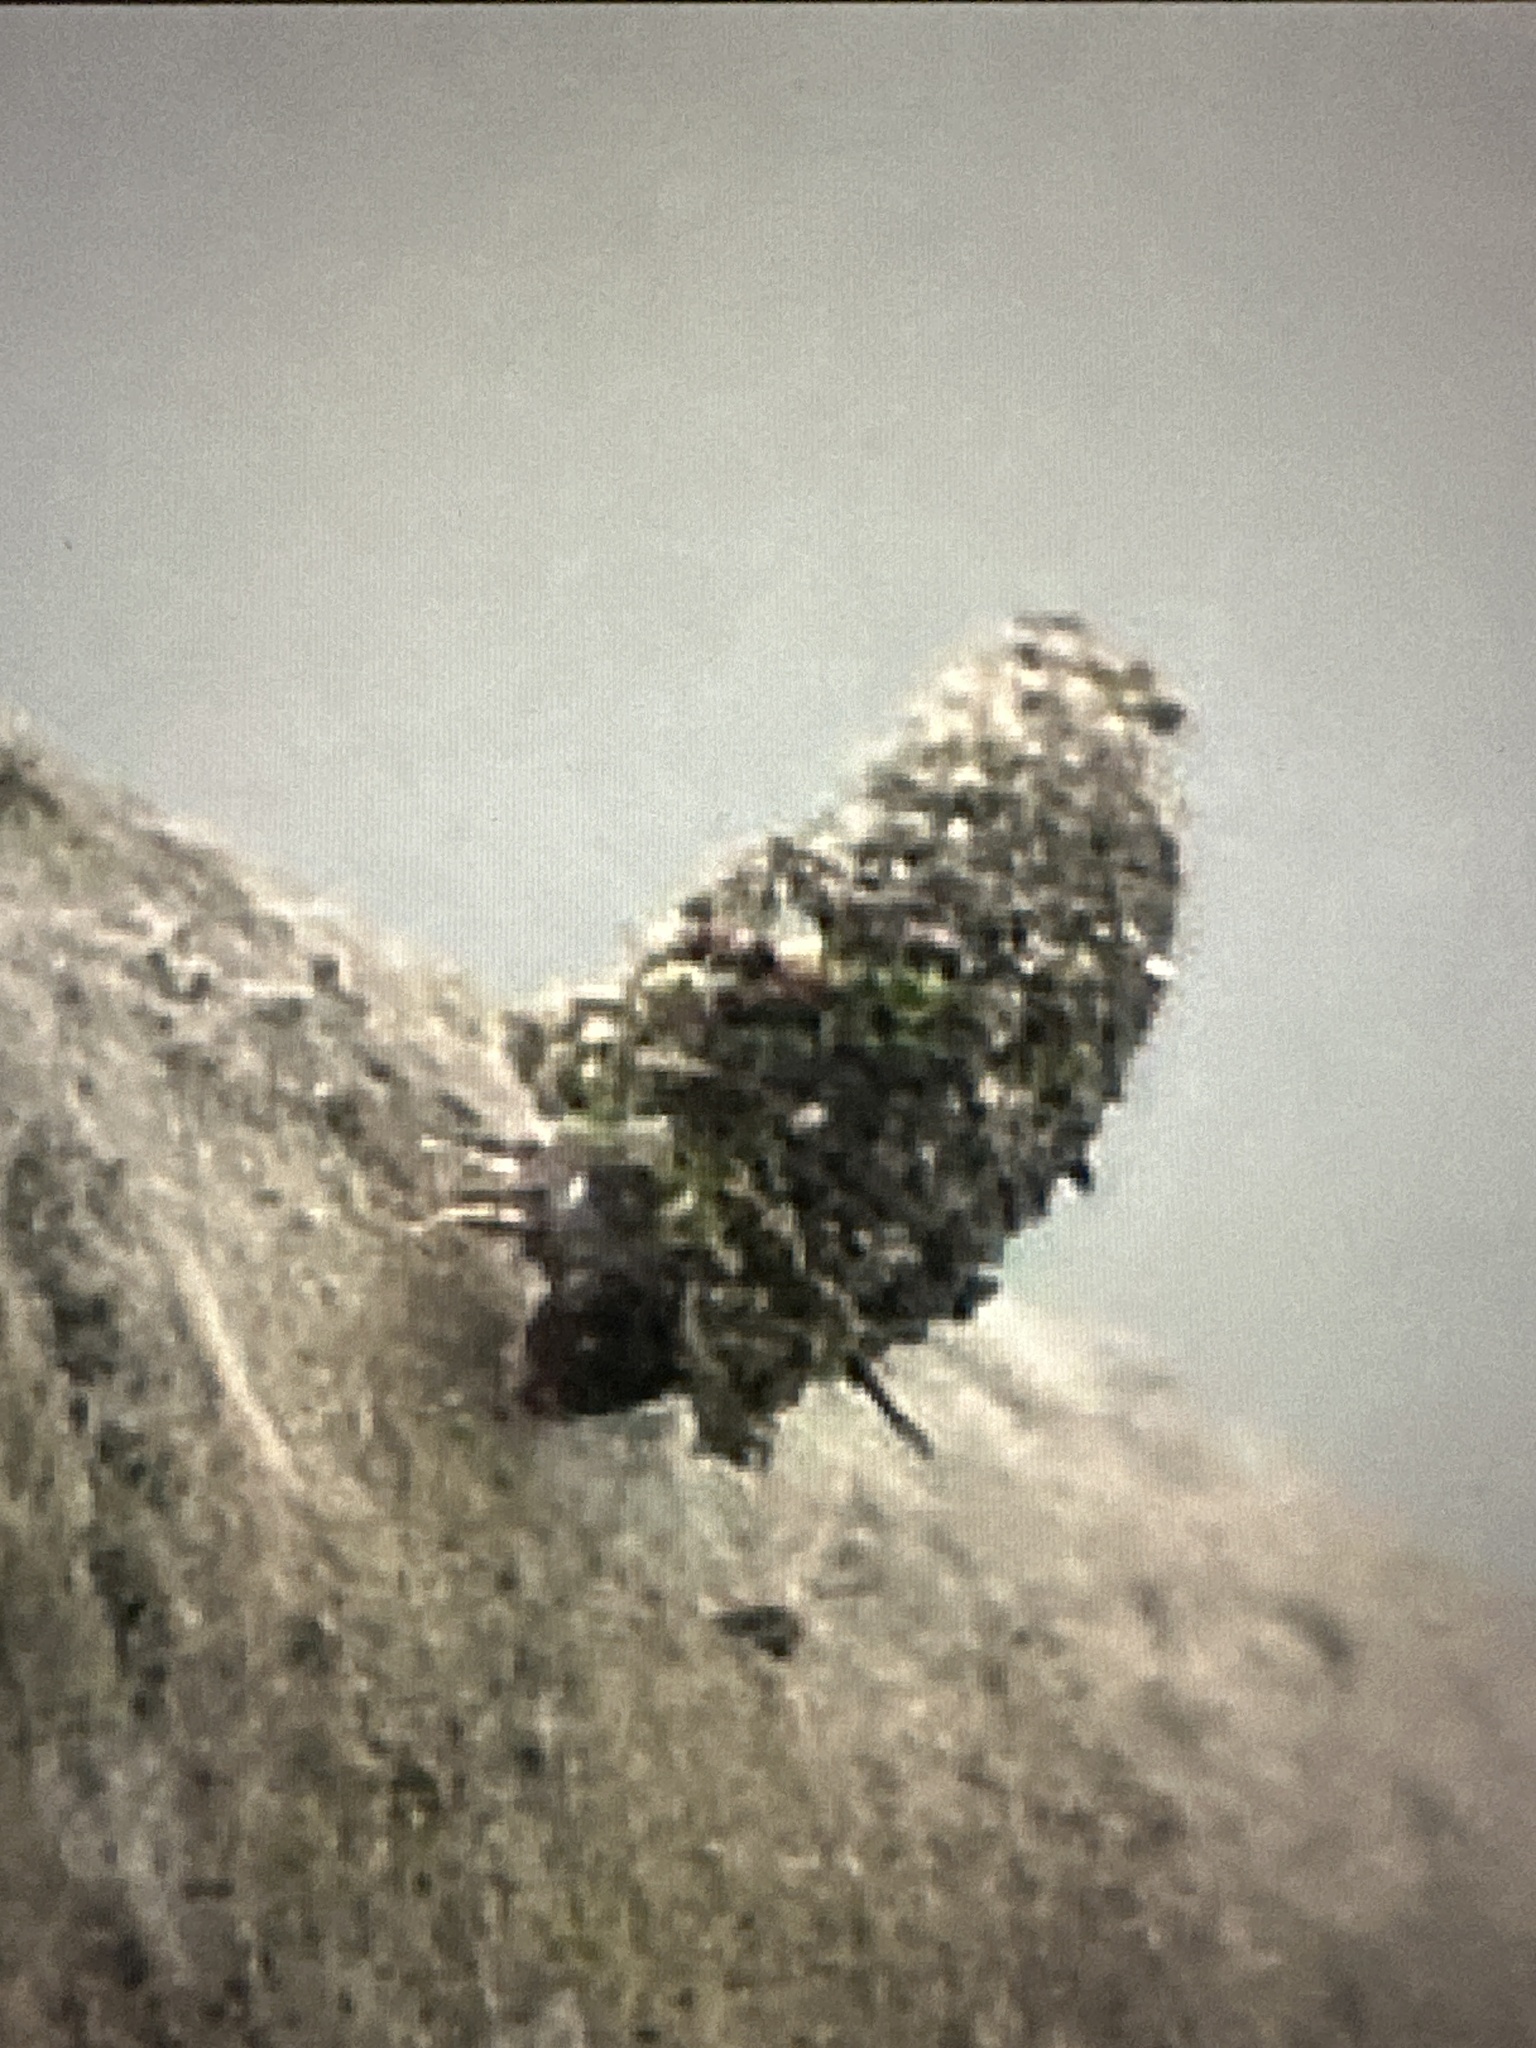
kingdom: Animalia
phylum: Arthropoda
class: Insecta
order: Lepidoptera
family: Psychidae
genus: Luffia
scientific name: Luffia lapidella
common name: Grey smoke
